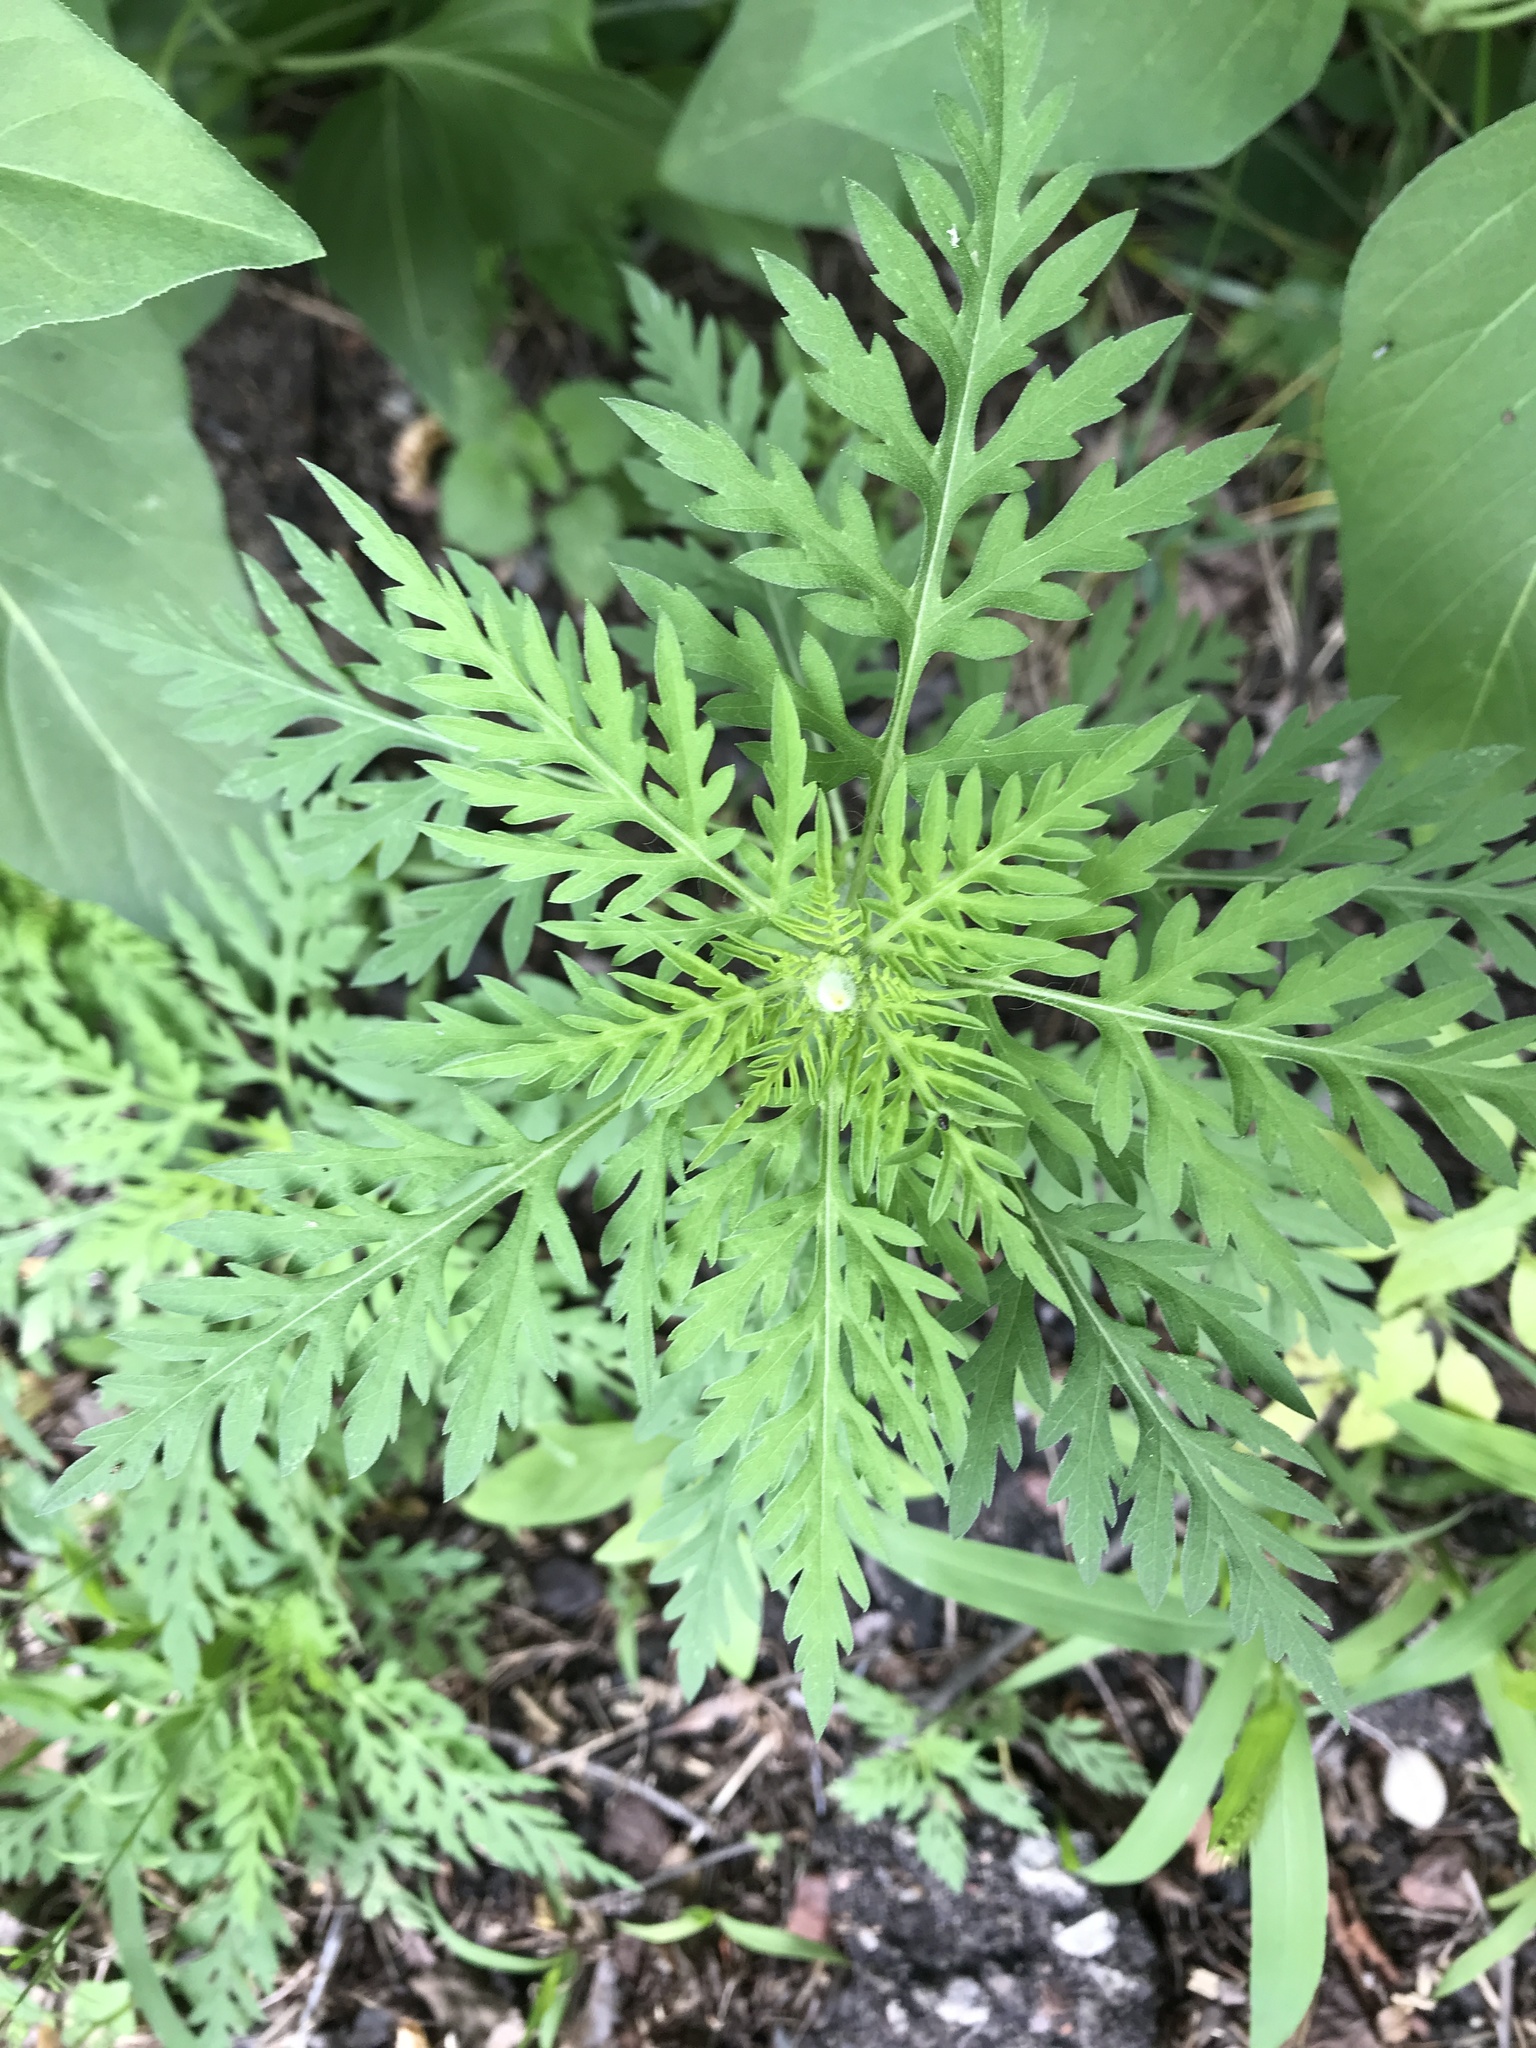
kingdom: Plantae
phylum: Tracheophyta
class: Magnoliopsida
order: Asterales
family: Asteraceae
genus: Ambrosia
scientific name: Ambrosia artemisiifolia
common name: Annual ragweed
